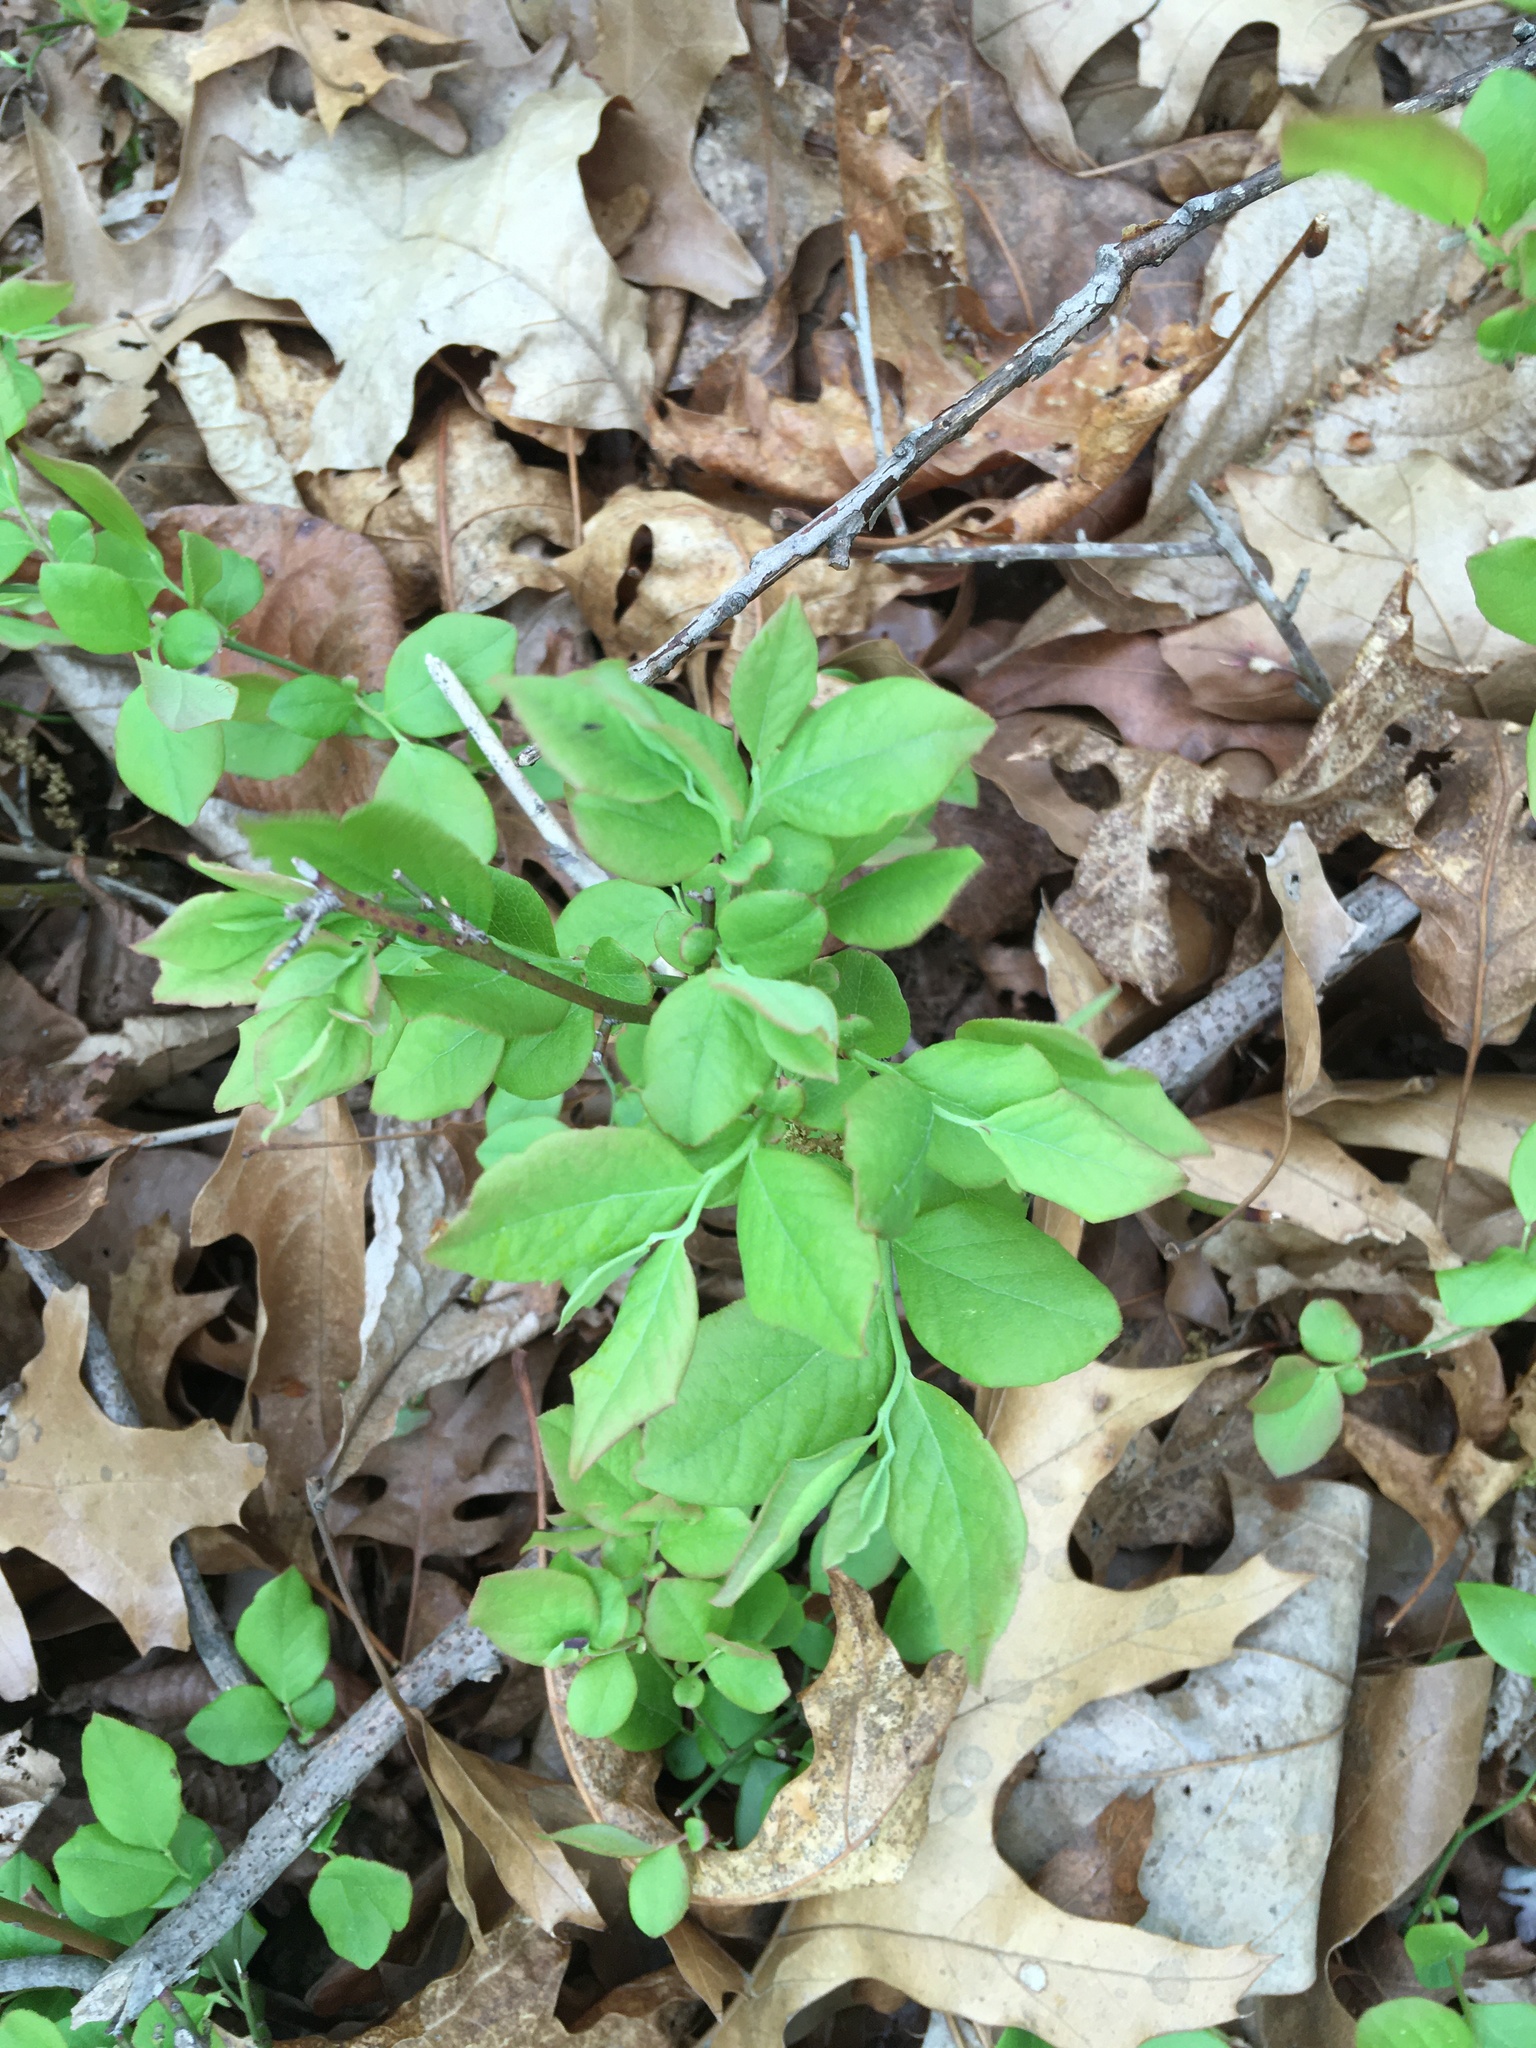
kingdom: Plantae
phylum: Tracheophyta
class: Magnoliopsida
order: Ericales
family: Ericaceae
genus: Vaccinium
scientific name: Vaccinium pallidum
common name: Blue ridge blueberry
